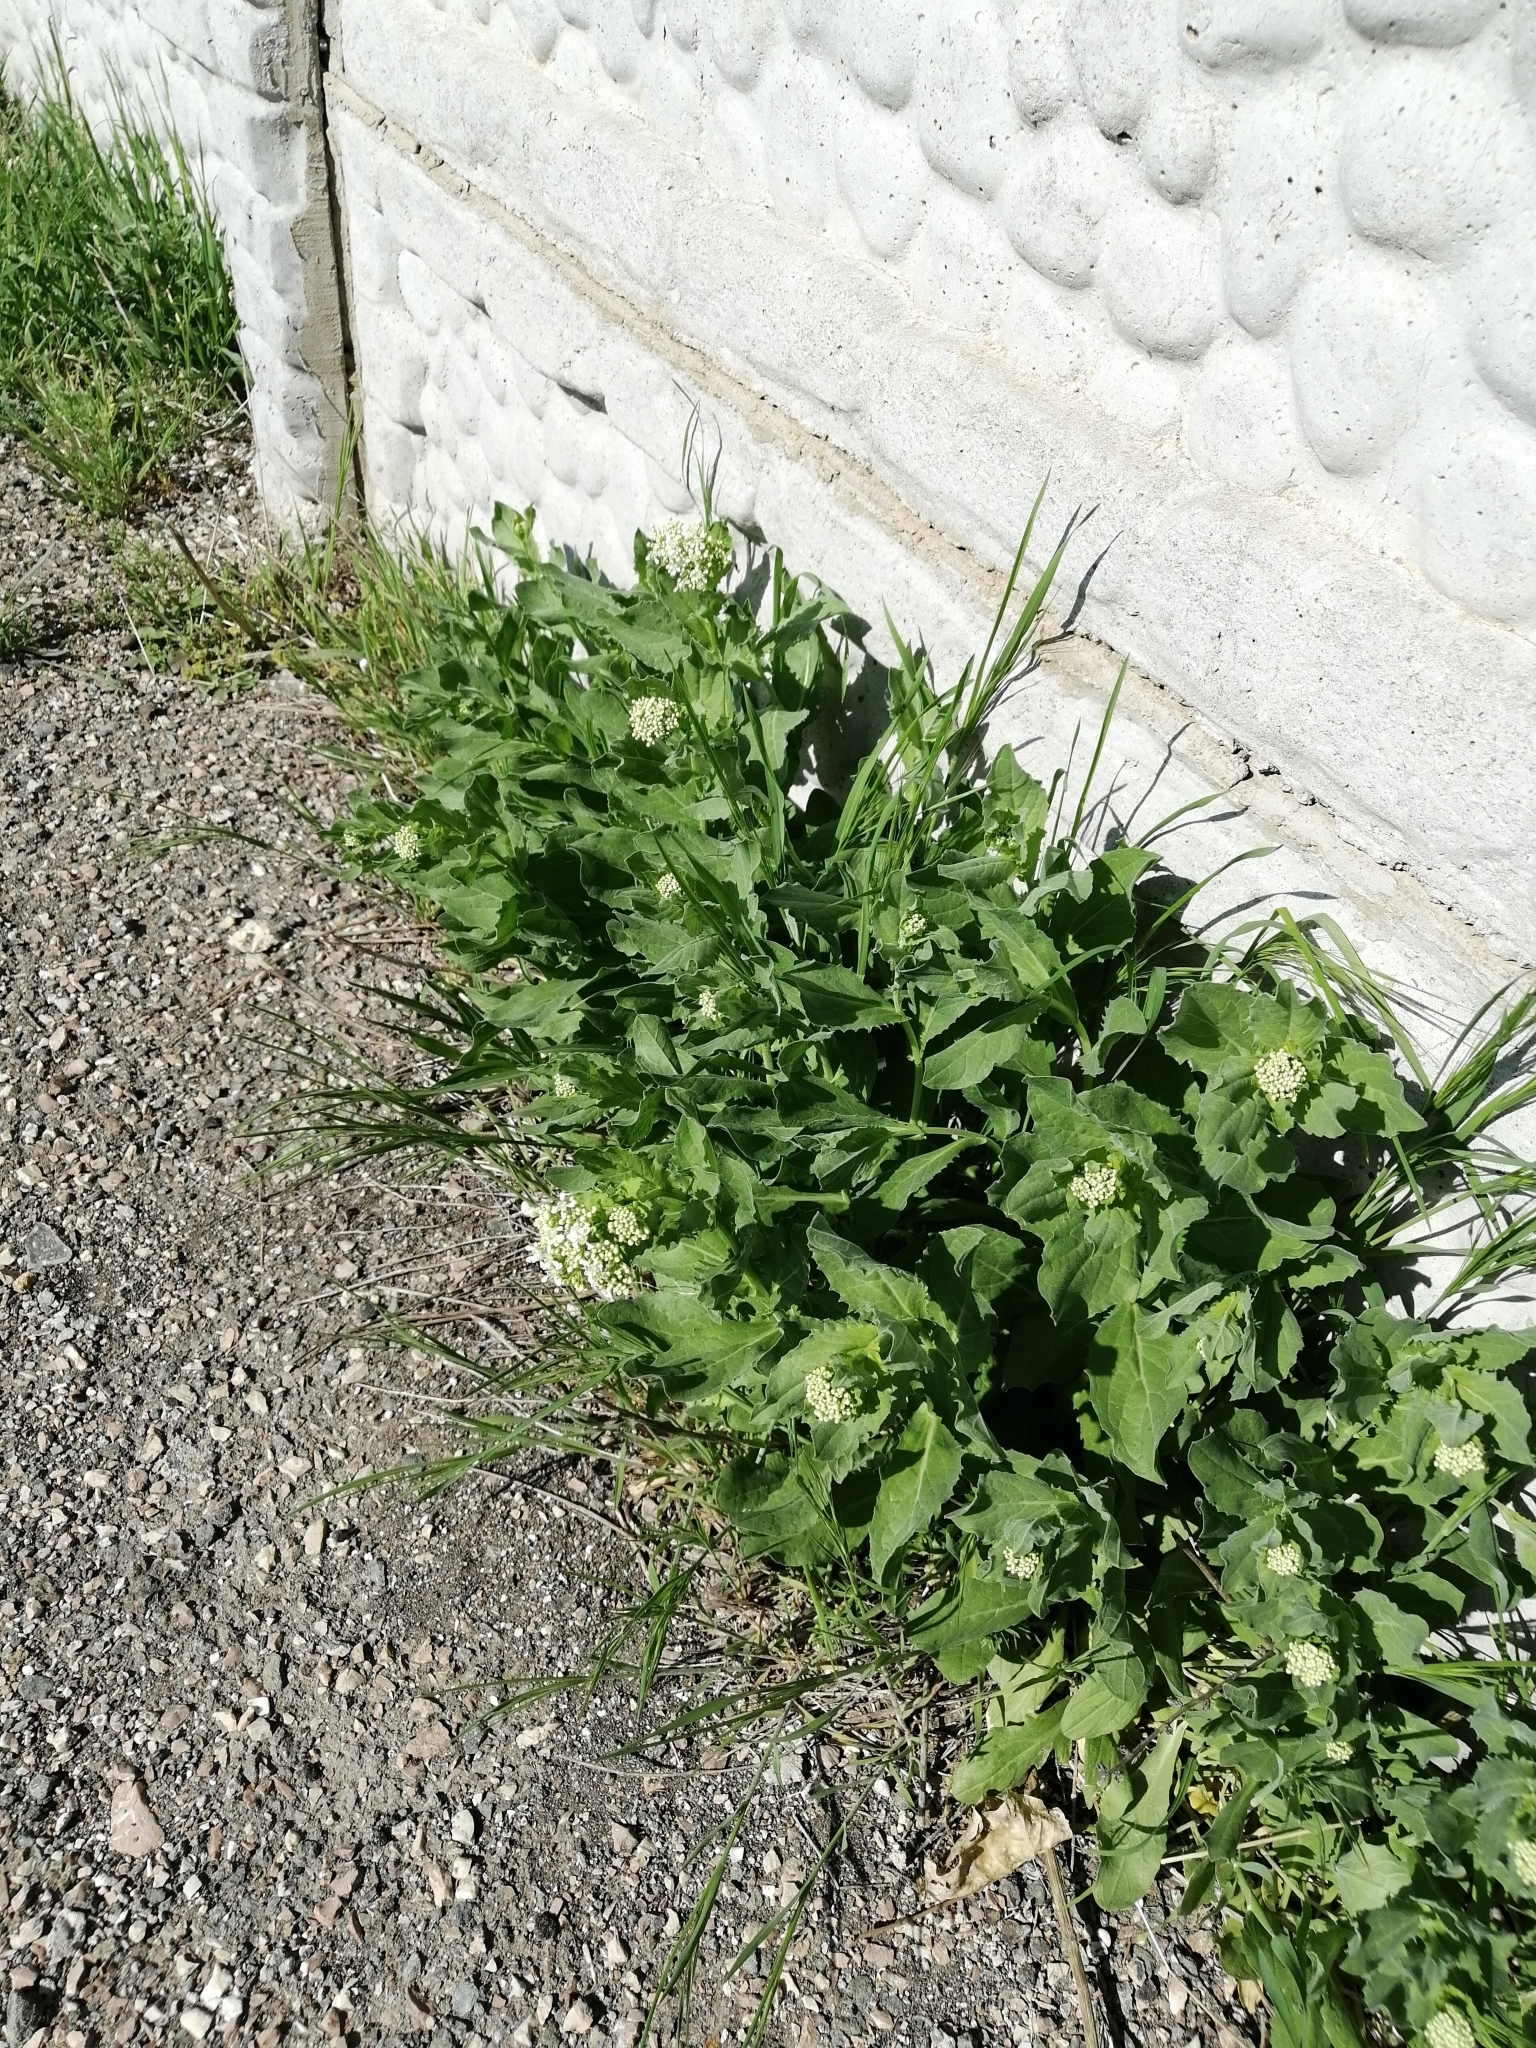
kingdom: Plantae
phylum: Tracheophyta
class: Magnoliopsida
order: Brassicales
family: Brassicaceae
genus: Lepidium
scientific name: Lepidium draba
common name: Hoary cress
